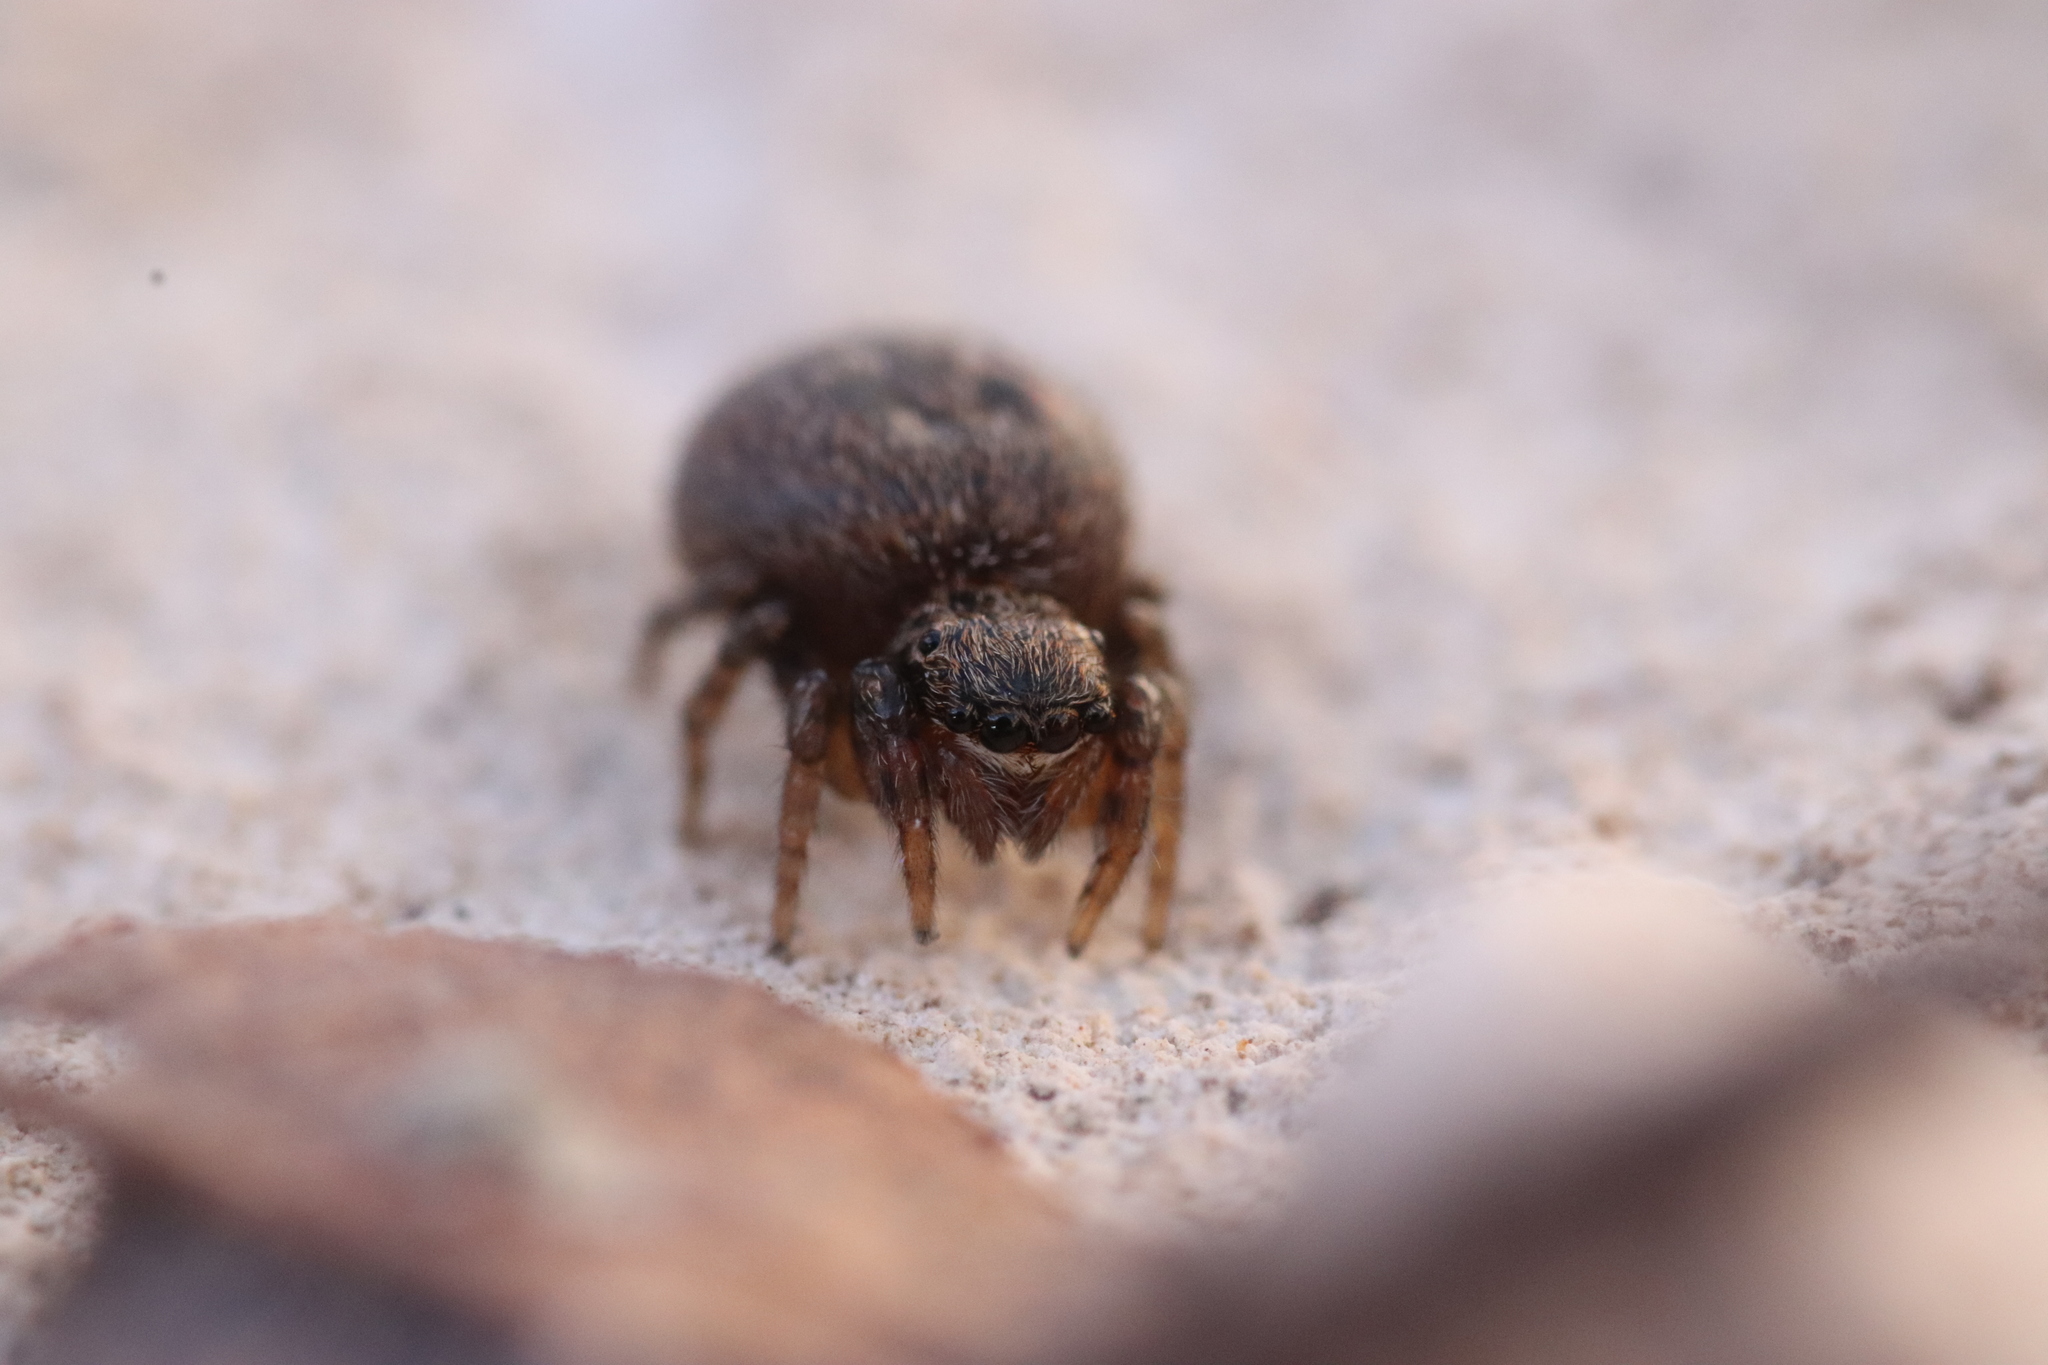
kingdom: Animalia
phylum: Arthropoda
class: Arachnida
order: Araneae
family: Salticidae
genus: Euophrys
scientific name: Euophrys rufibarbis
